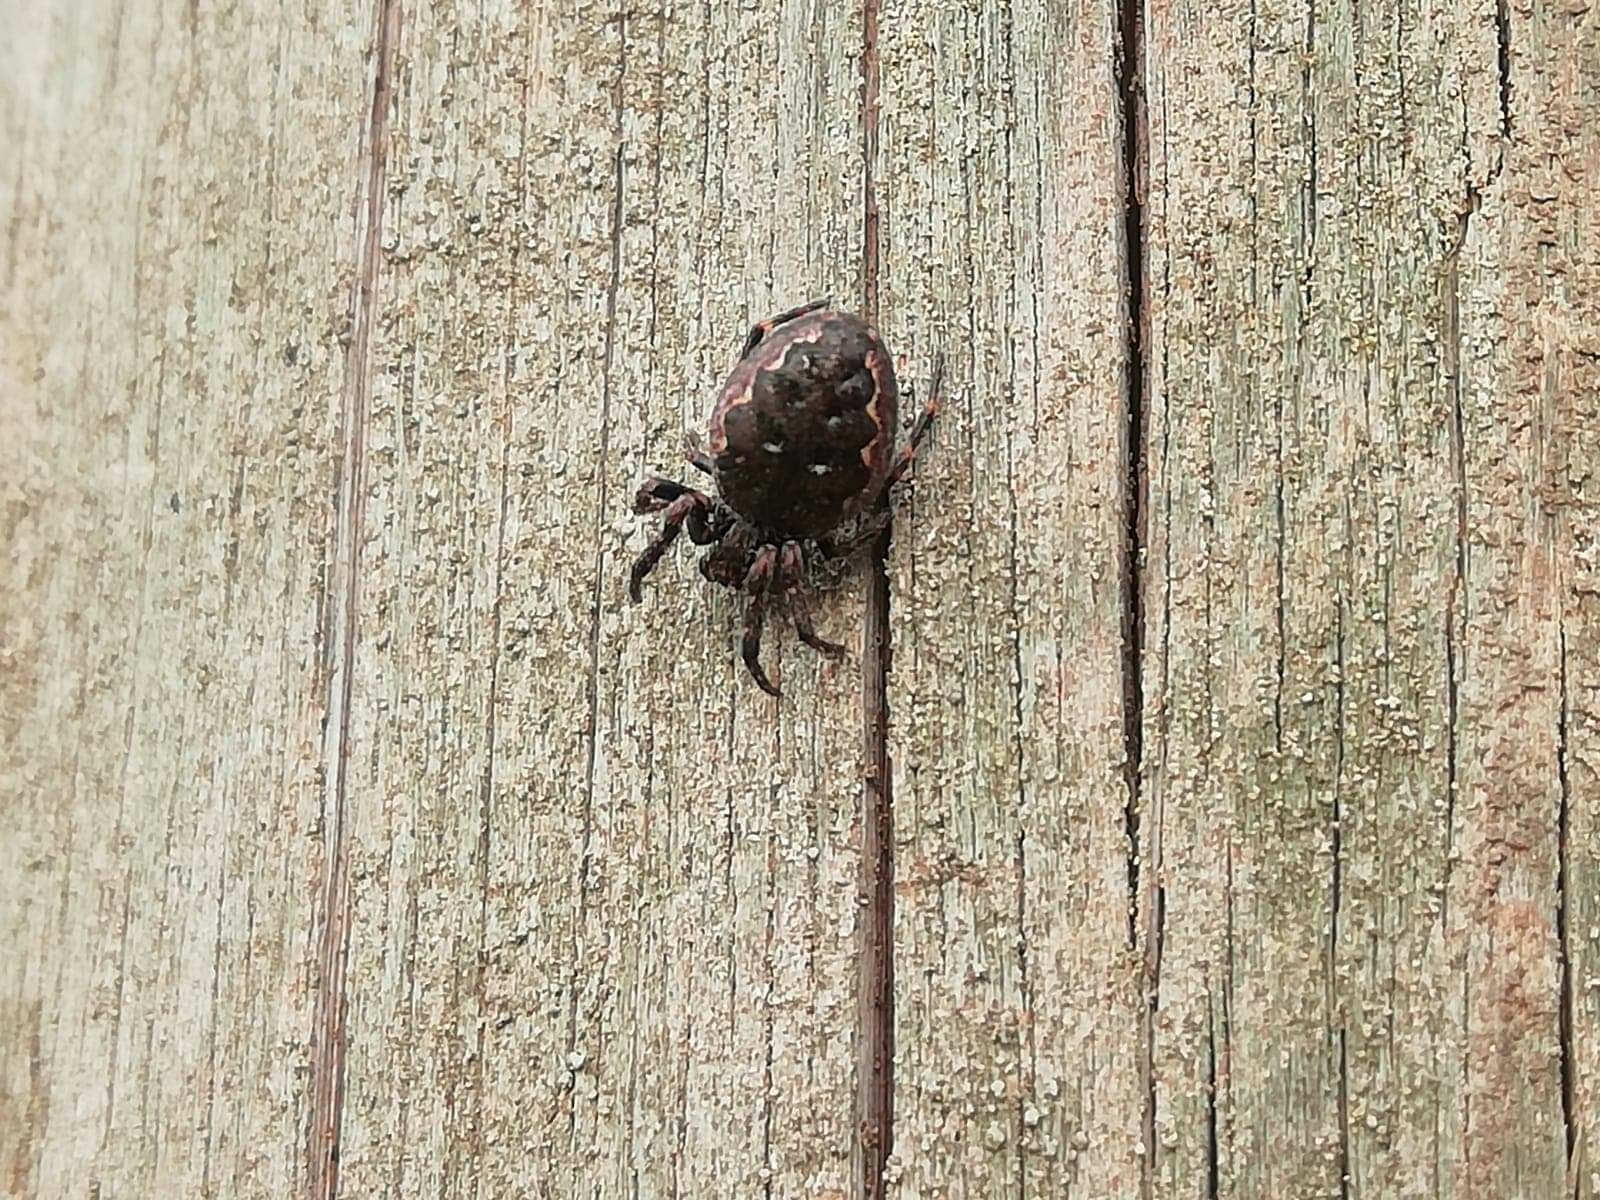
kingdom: Animalia
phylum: Arthropoda
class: Arachnida
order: Araneae
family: Araneidae
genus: Nuctenea
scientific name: Nuctenea umbratica
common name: Toad spider
